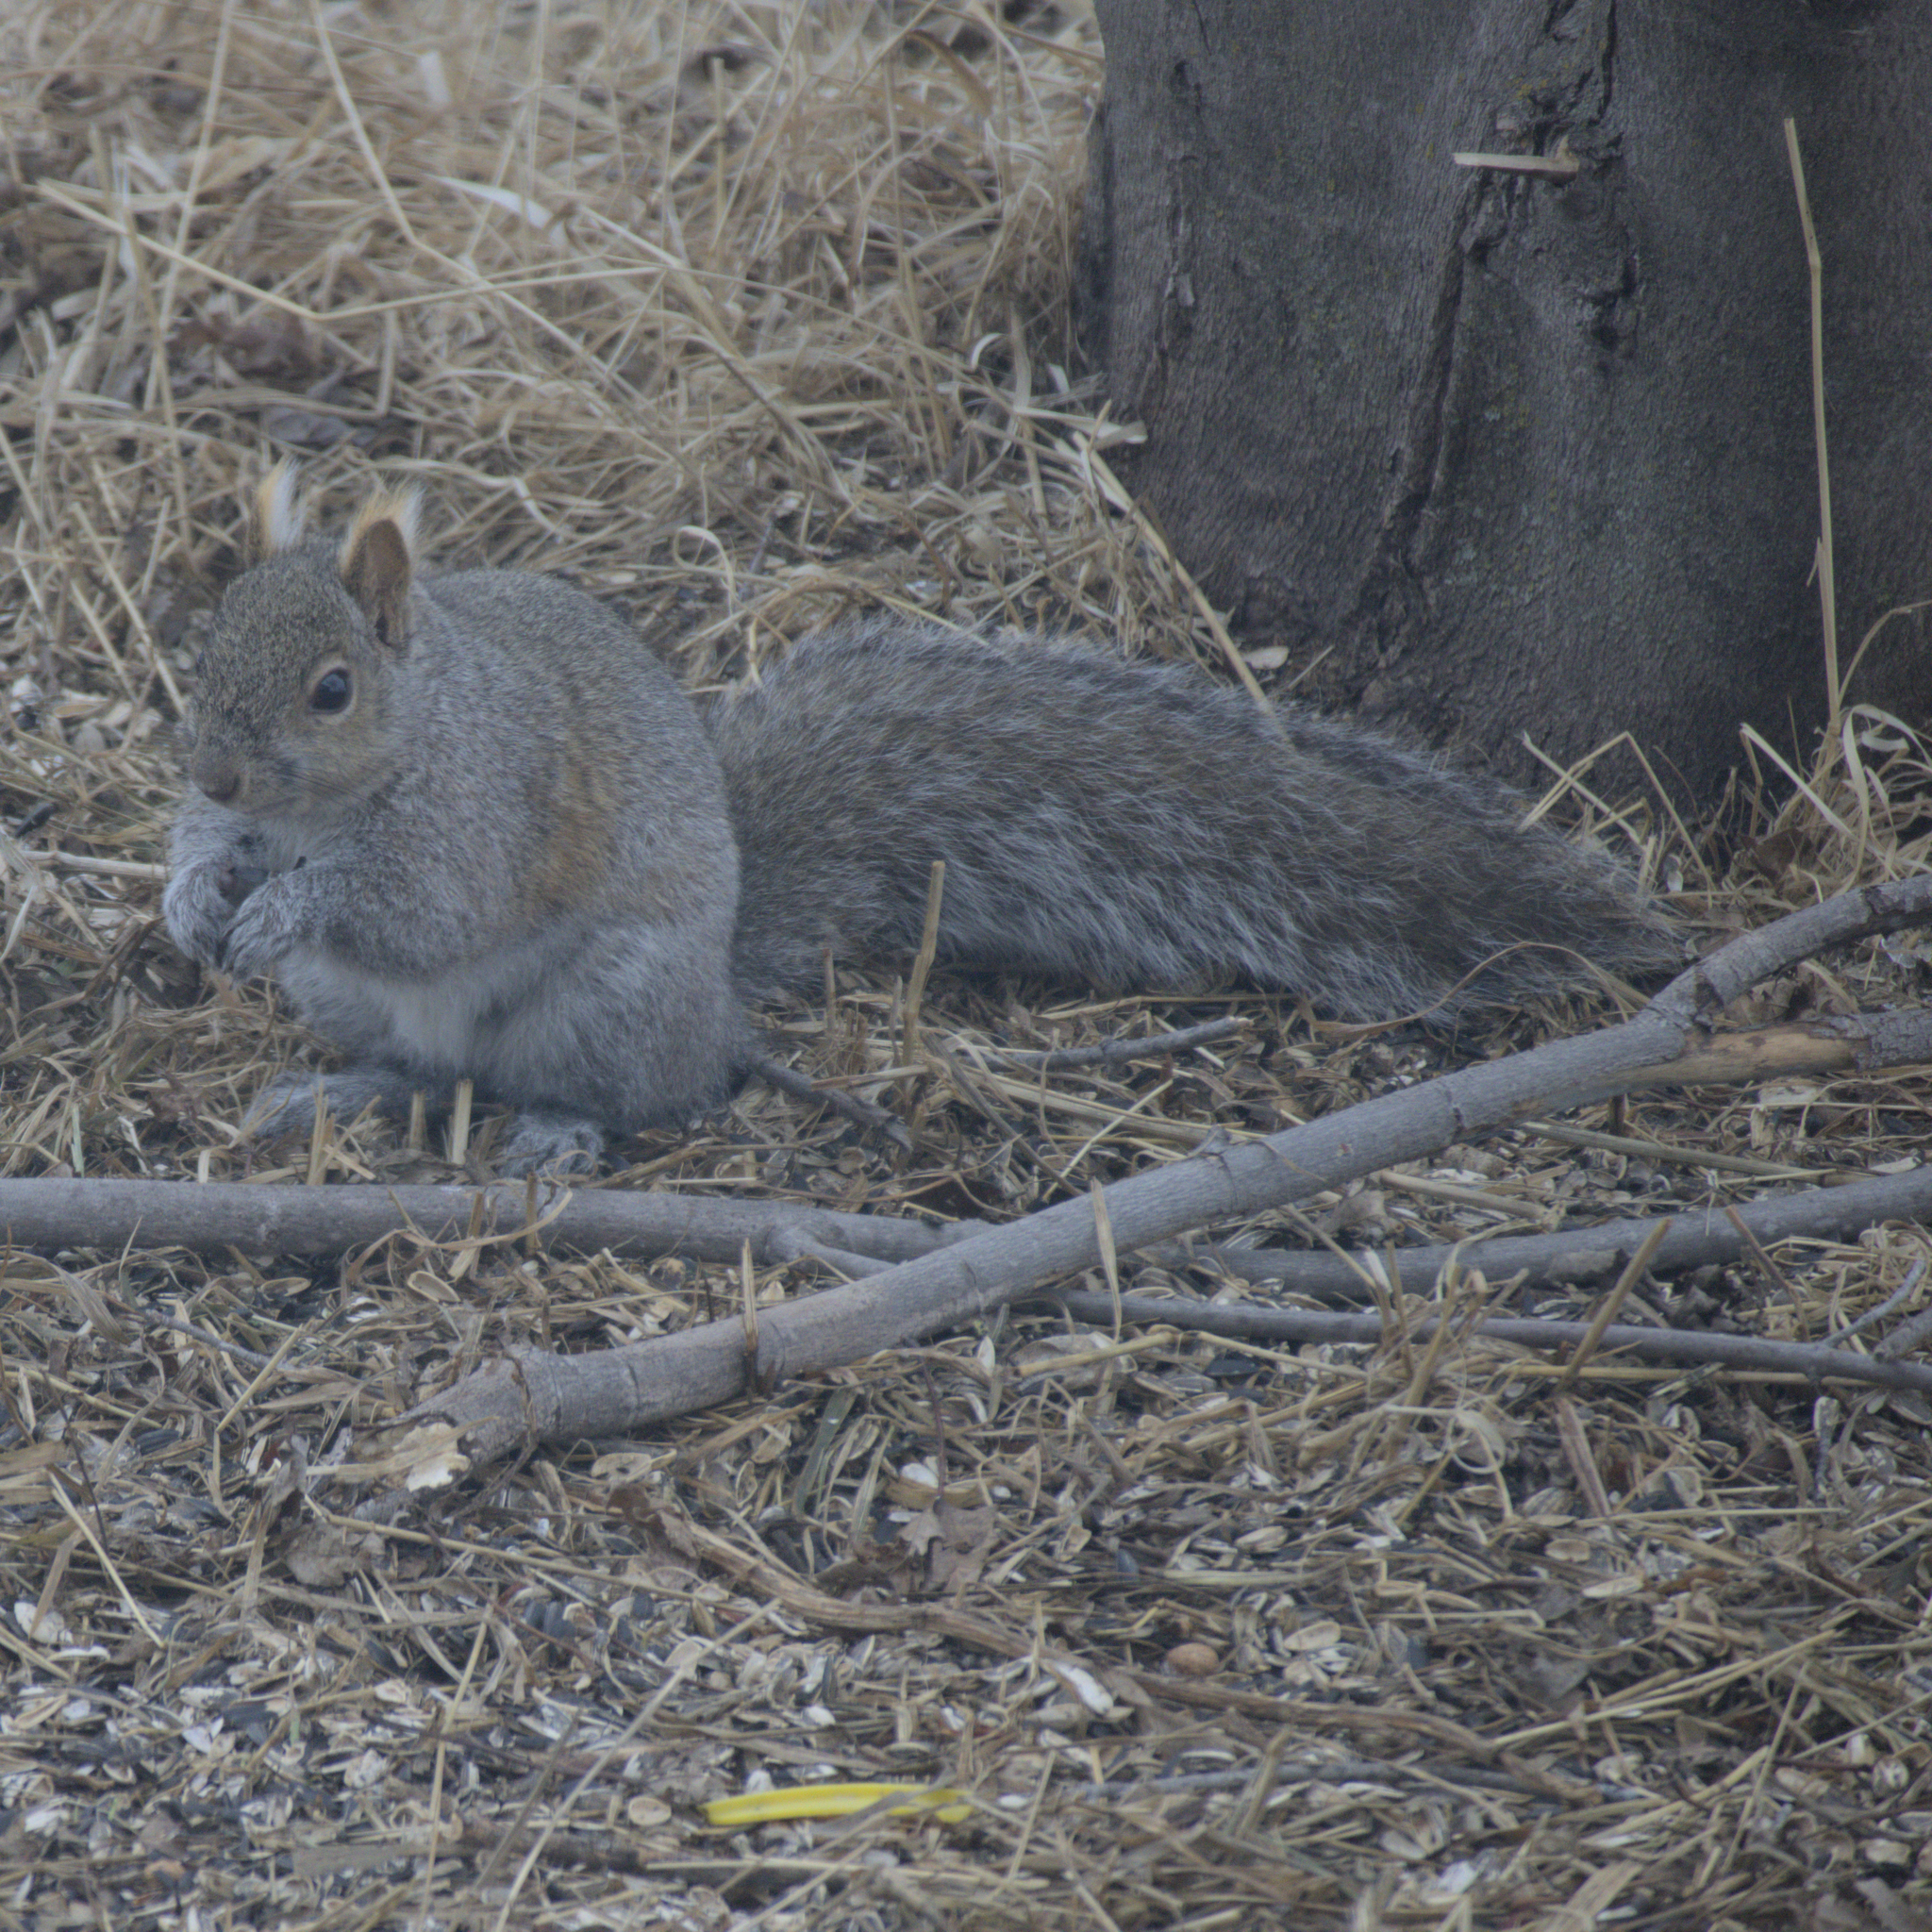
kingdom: Animalia
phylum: Chordata
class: Mammalia
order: Rodentia
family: Sciuridae
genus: Sciurus
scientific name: Sciurus carolinensis
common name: Eastern gray squirrel
